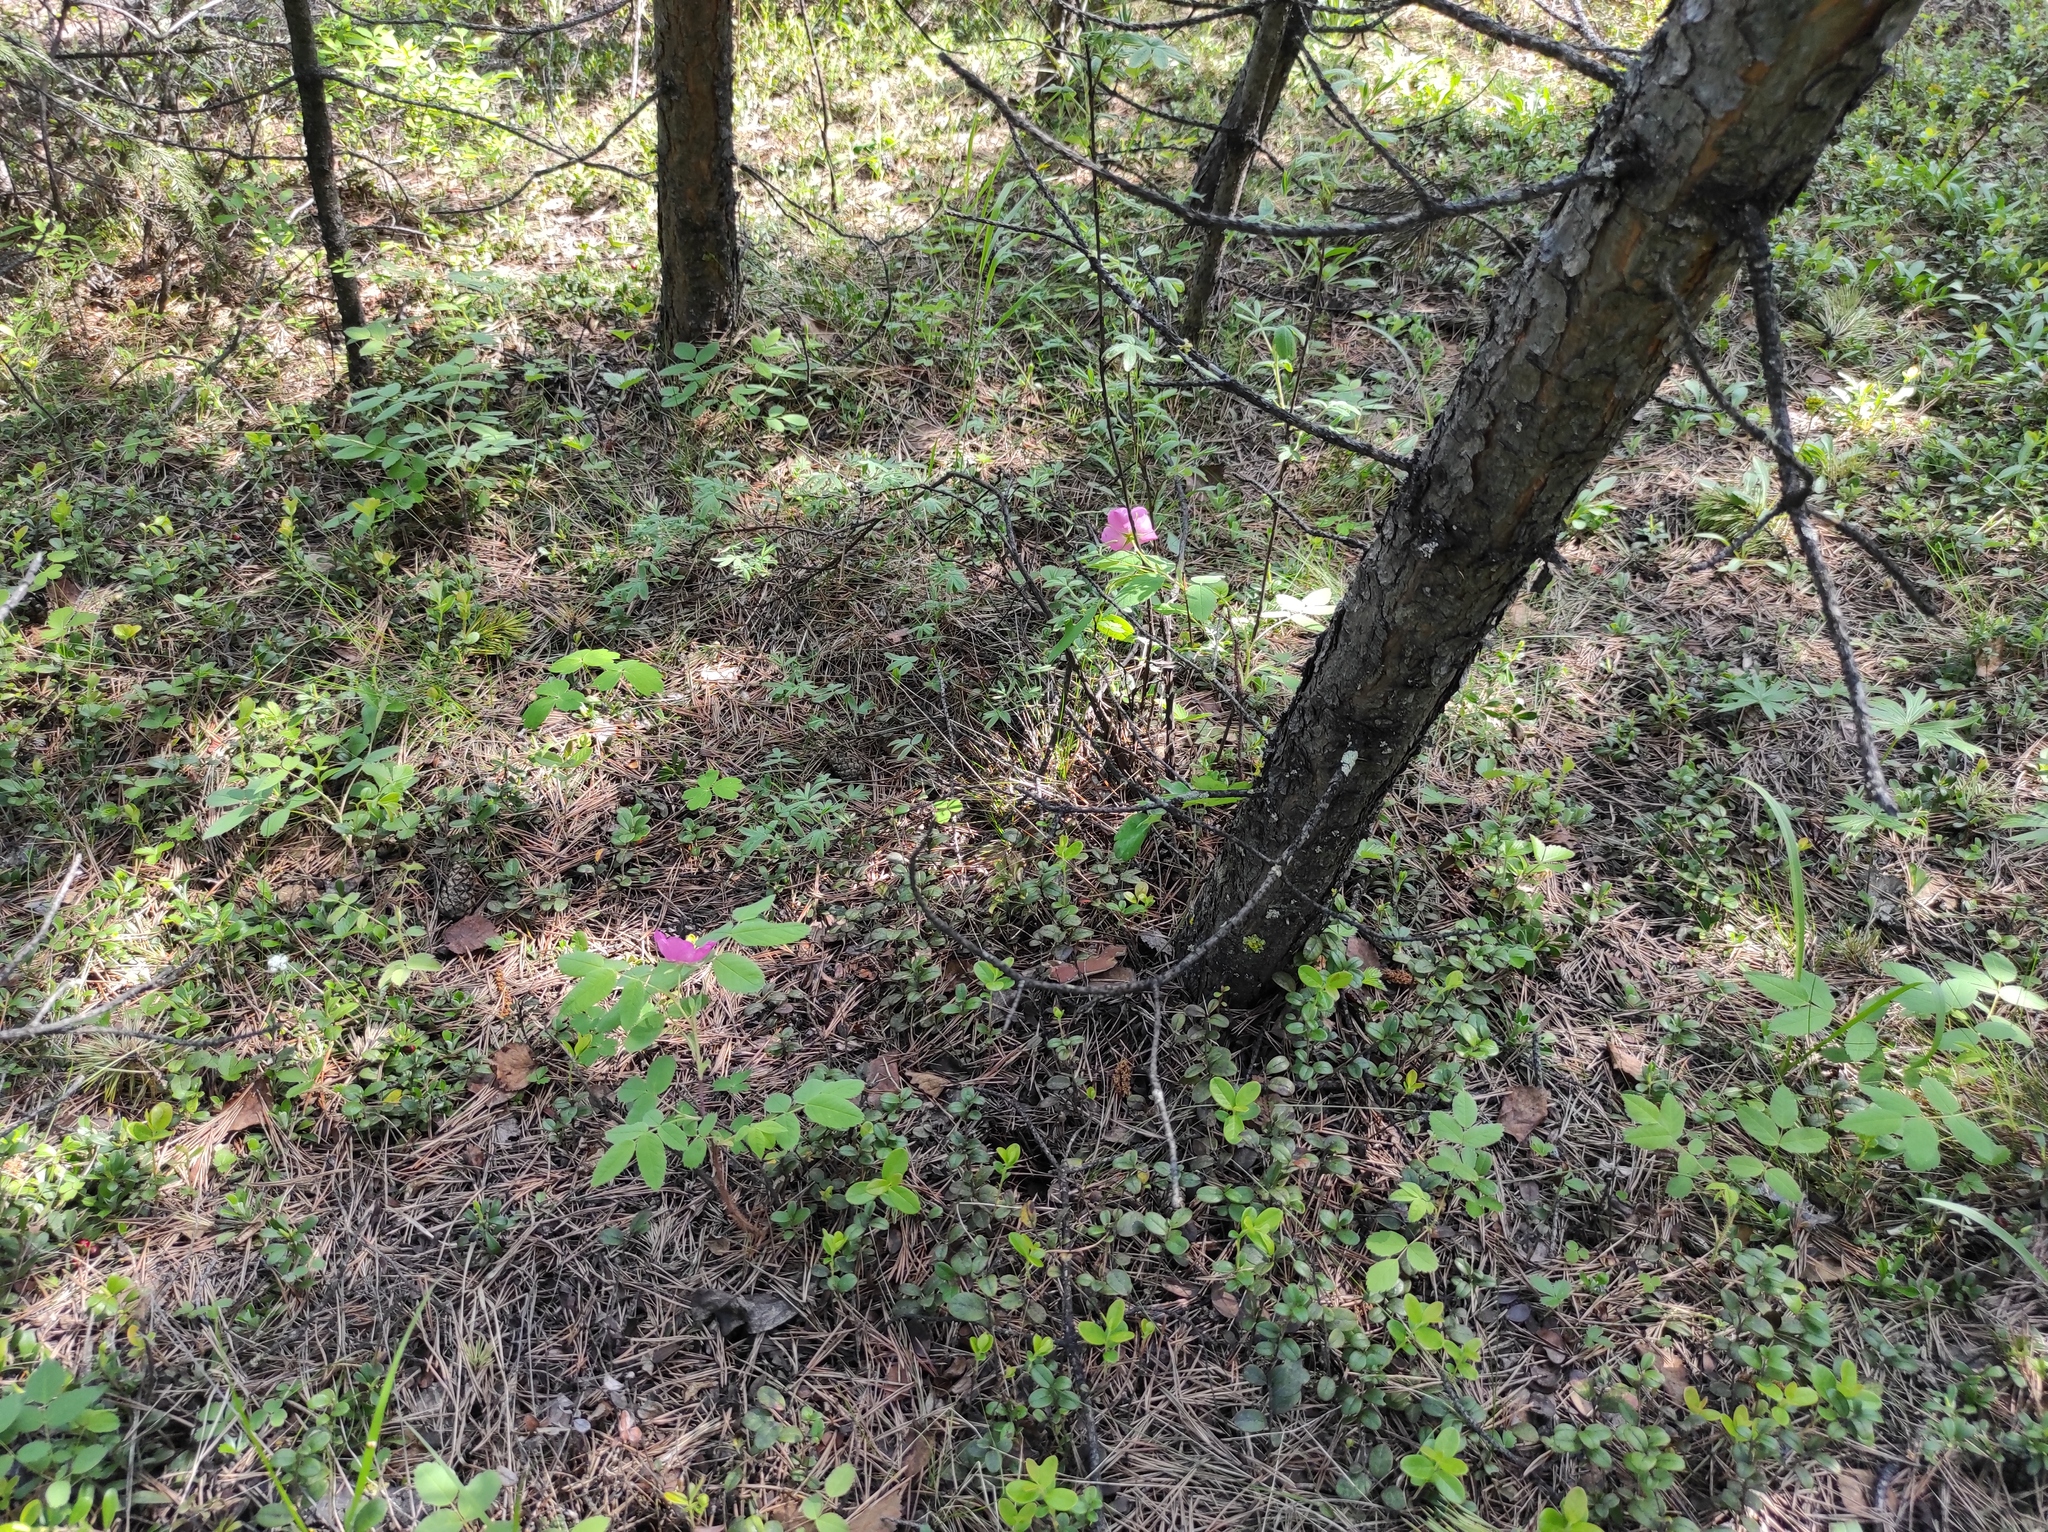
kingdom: Plantae
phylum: Tracheophyta
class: Pinopsida
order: Pinales
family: Pinaceae
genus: Pinus
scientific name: Pinus sylvestris
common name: Scots pine
